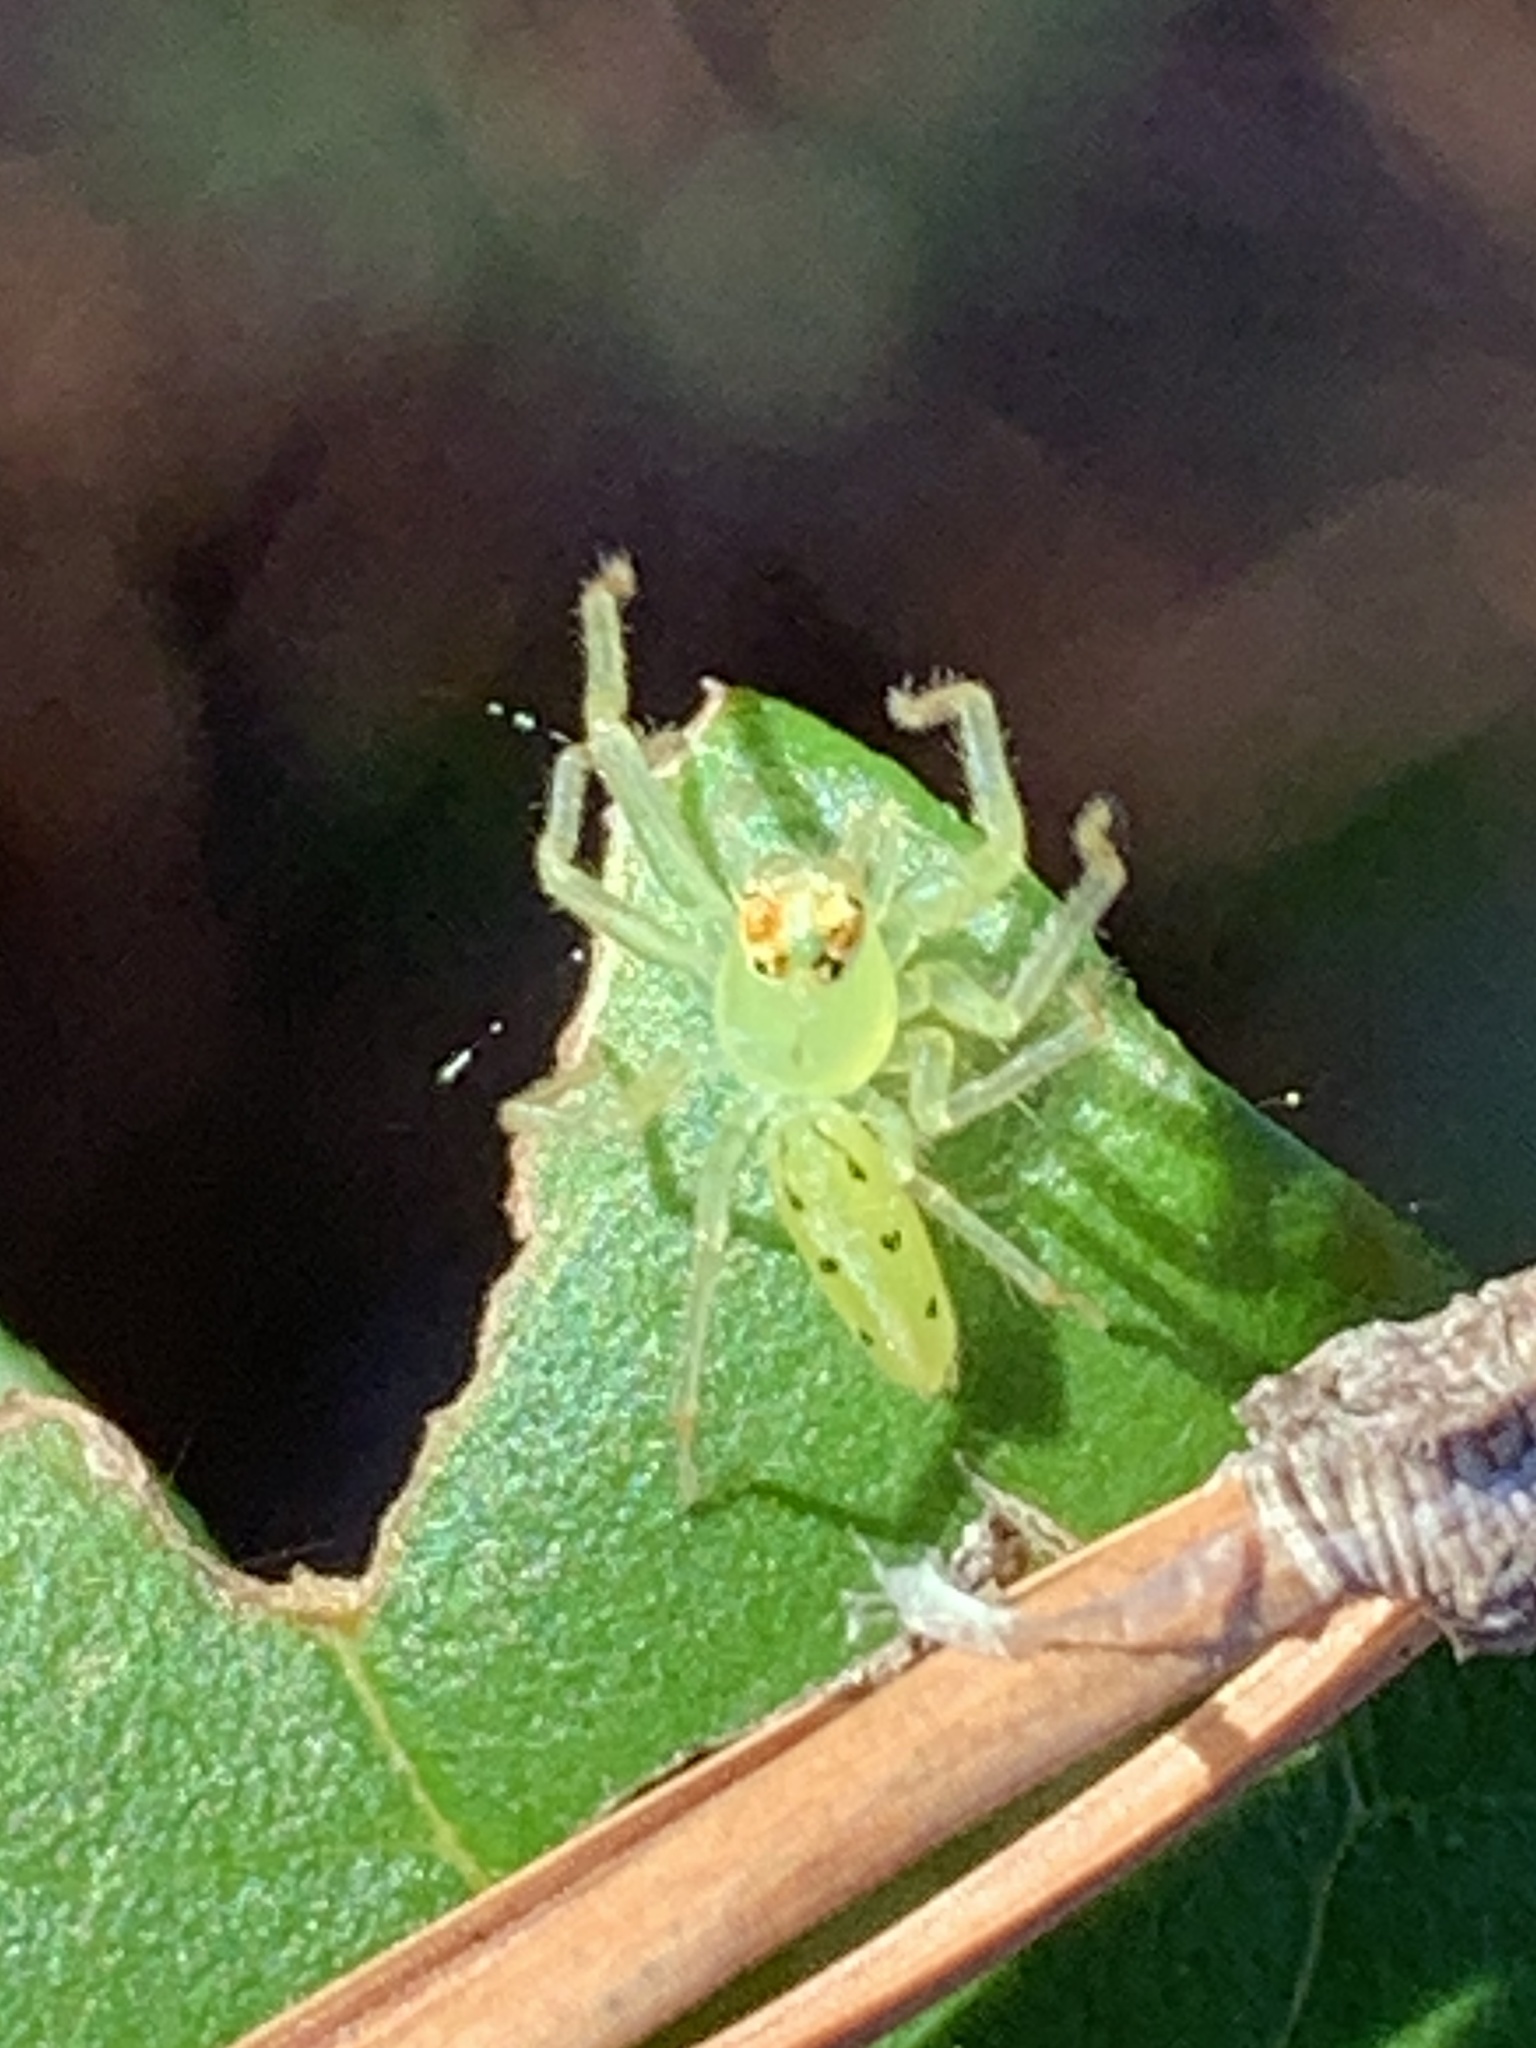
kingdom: Animalia
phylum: Arthropoda
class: Arachnida
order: Araneae
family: Salticidae
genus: Lyssomanes
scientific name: Lyssomanes viridis
